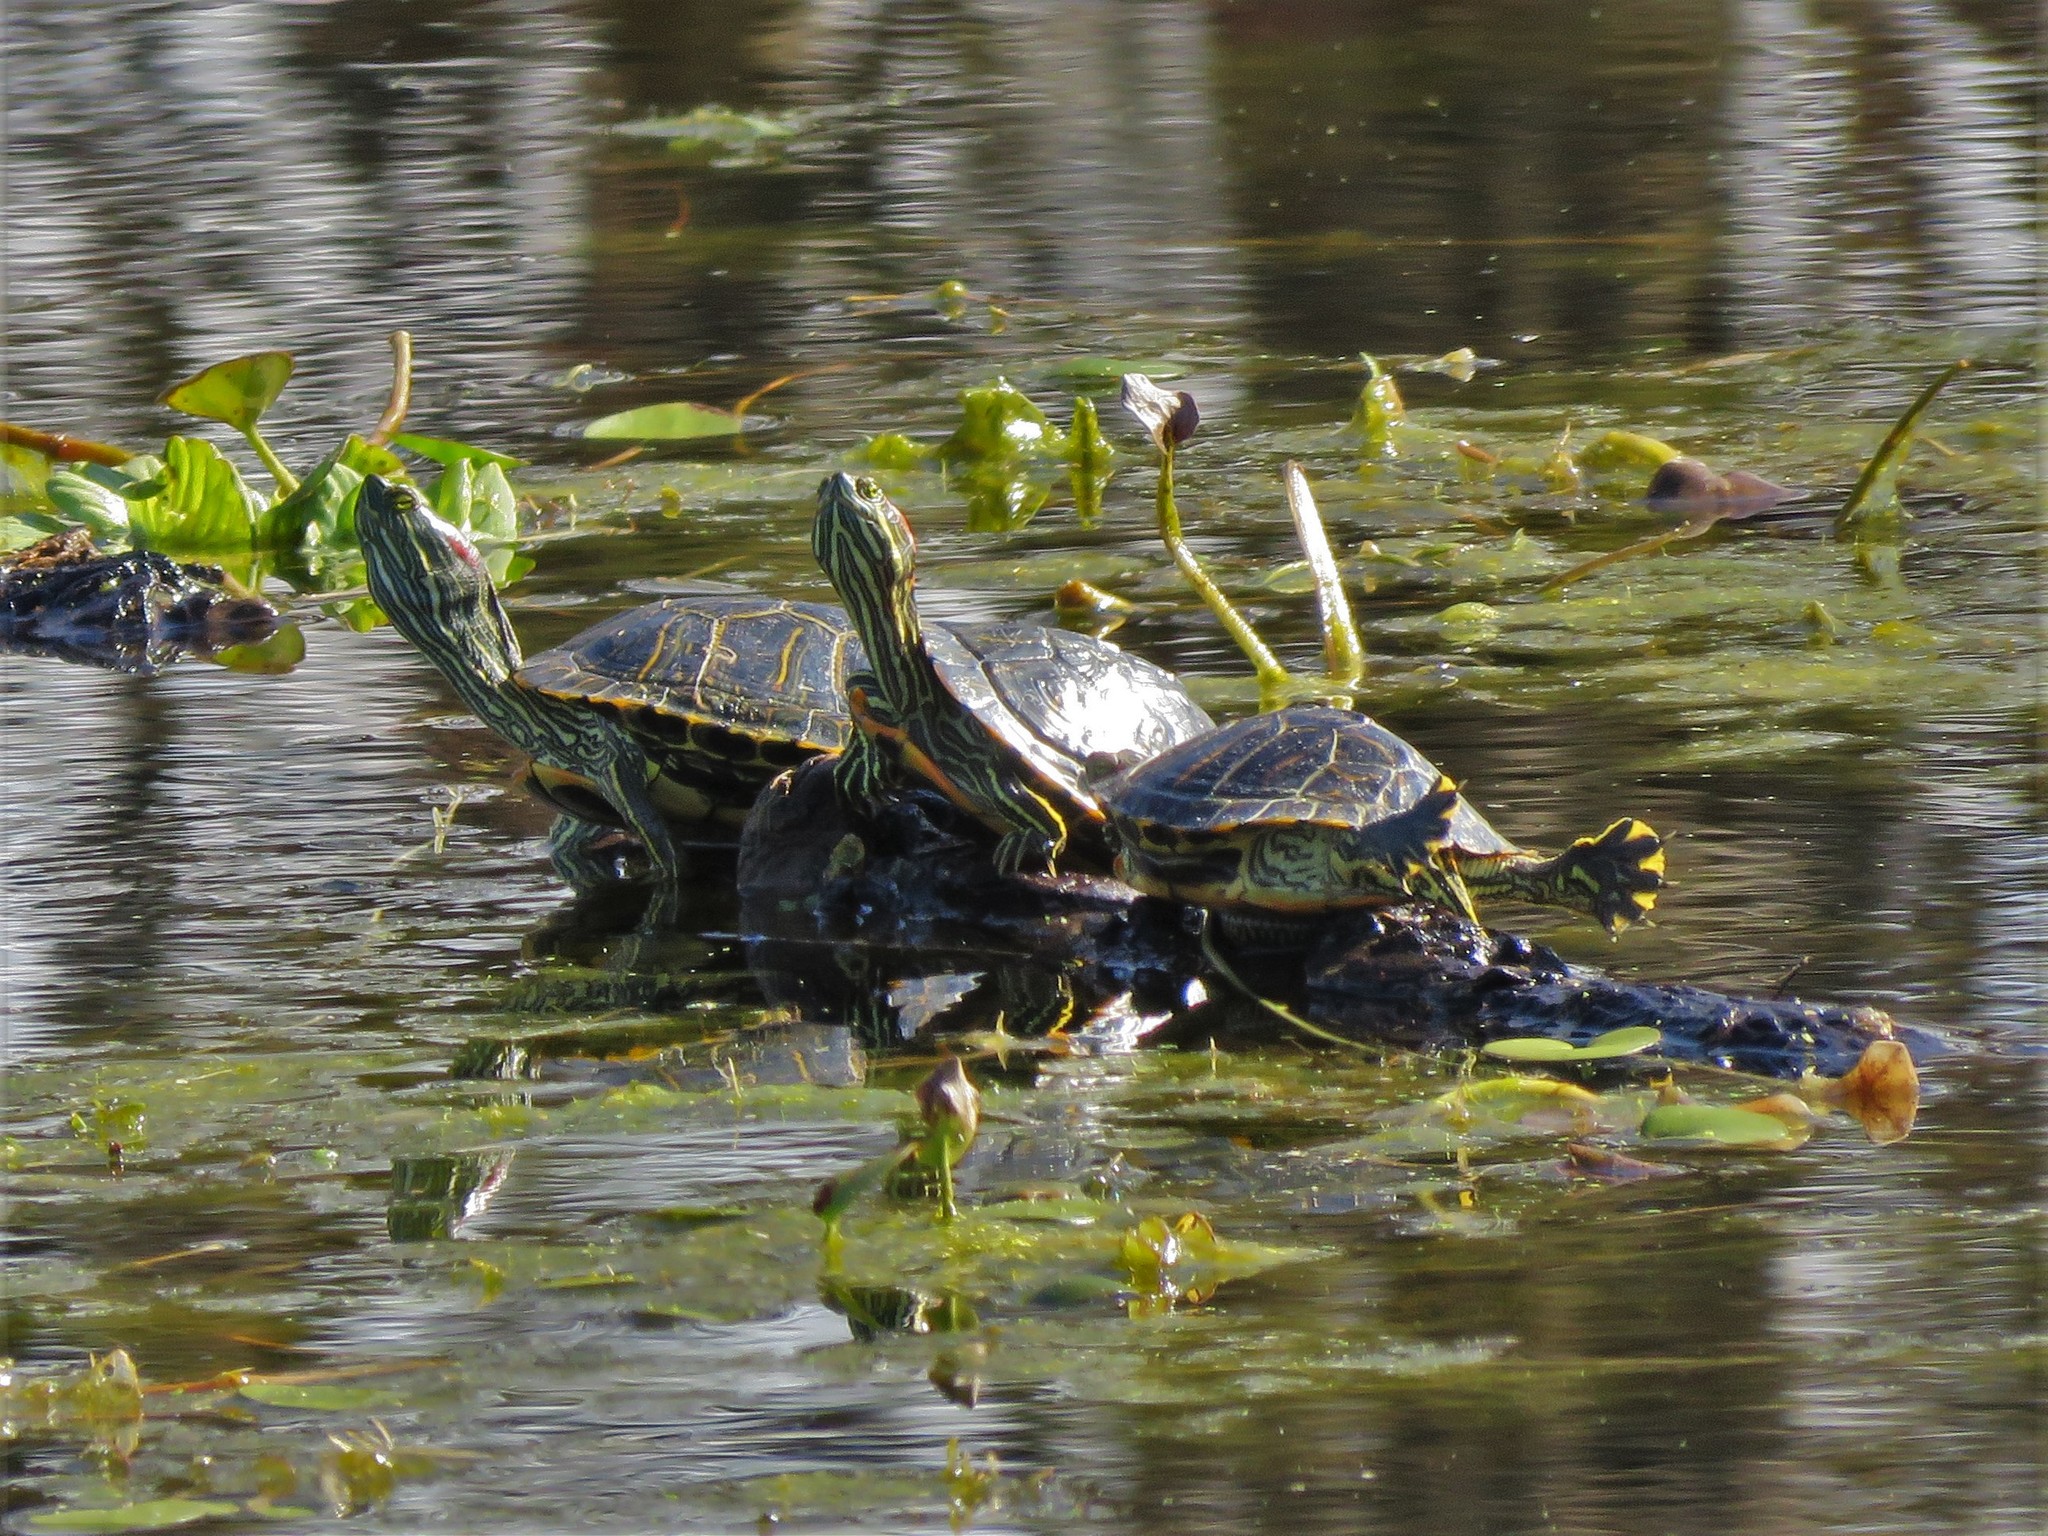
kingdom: Animalia
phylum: Chordata
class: Testudines
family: Emydidae
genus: Trachemys
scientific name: Trachemys scripta
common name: Slider
